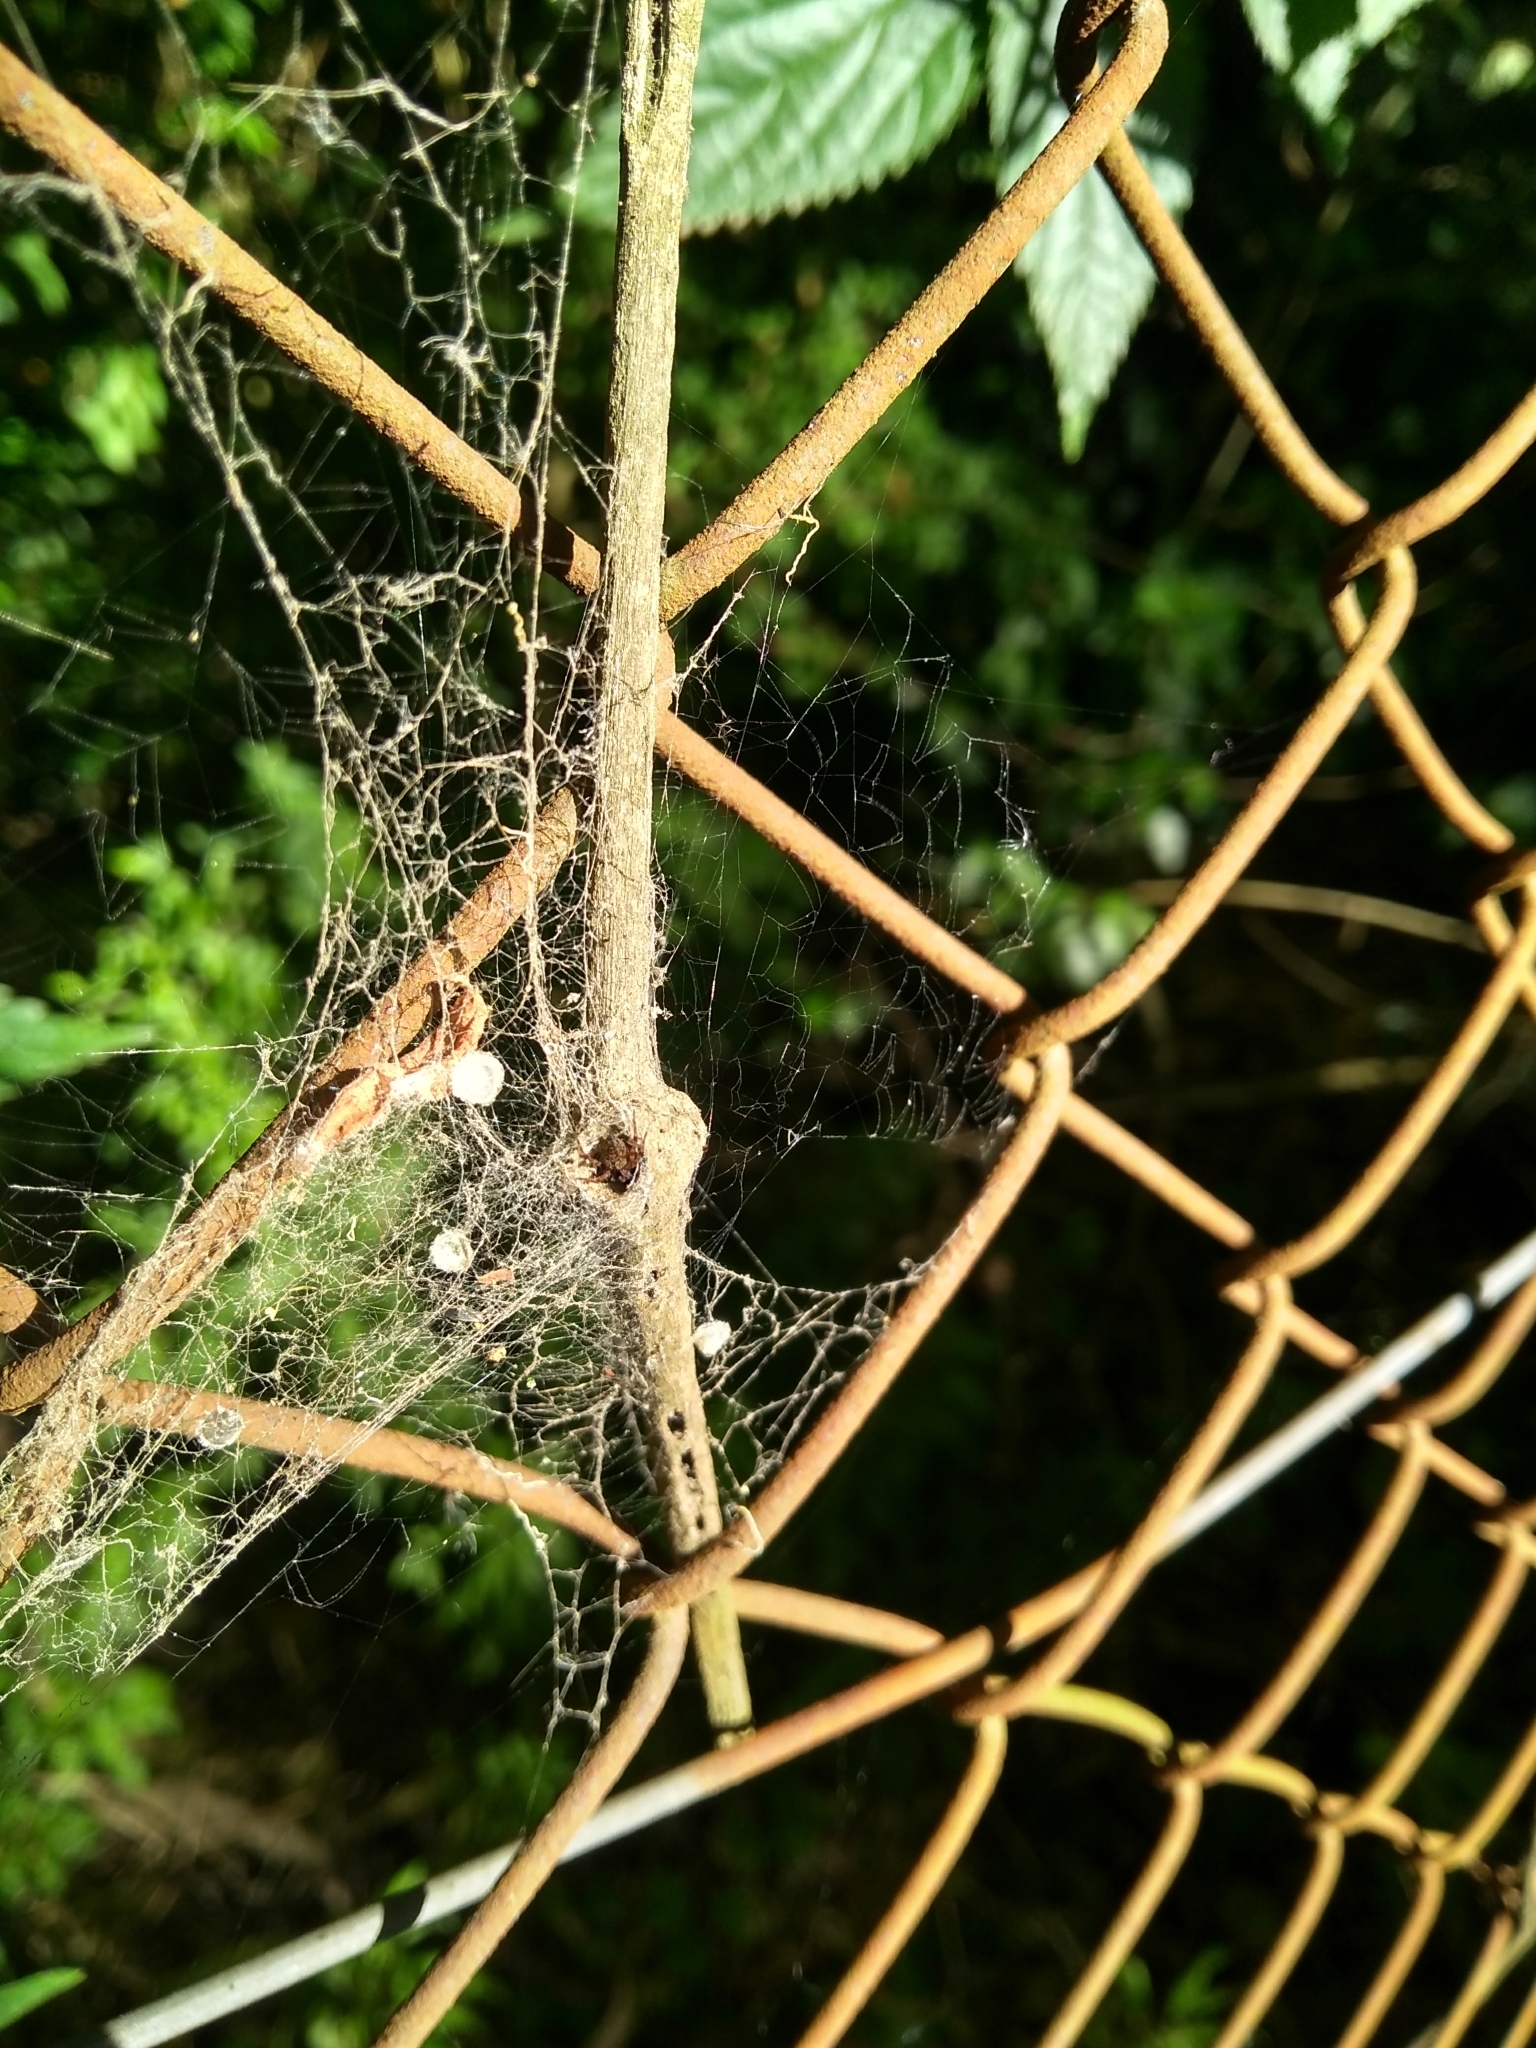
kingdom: Animalia
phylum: Arthropoda
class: Arachnida
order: Araneae
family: Desidae
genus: Badumna
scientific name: Badumna longinqua
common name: Gray house spider
